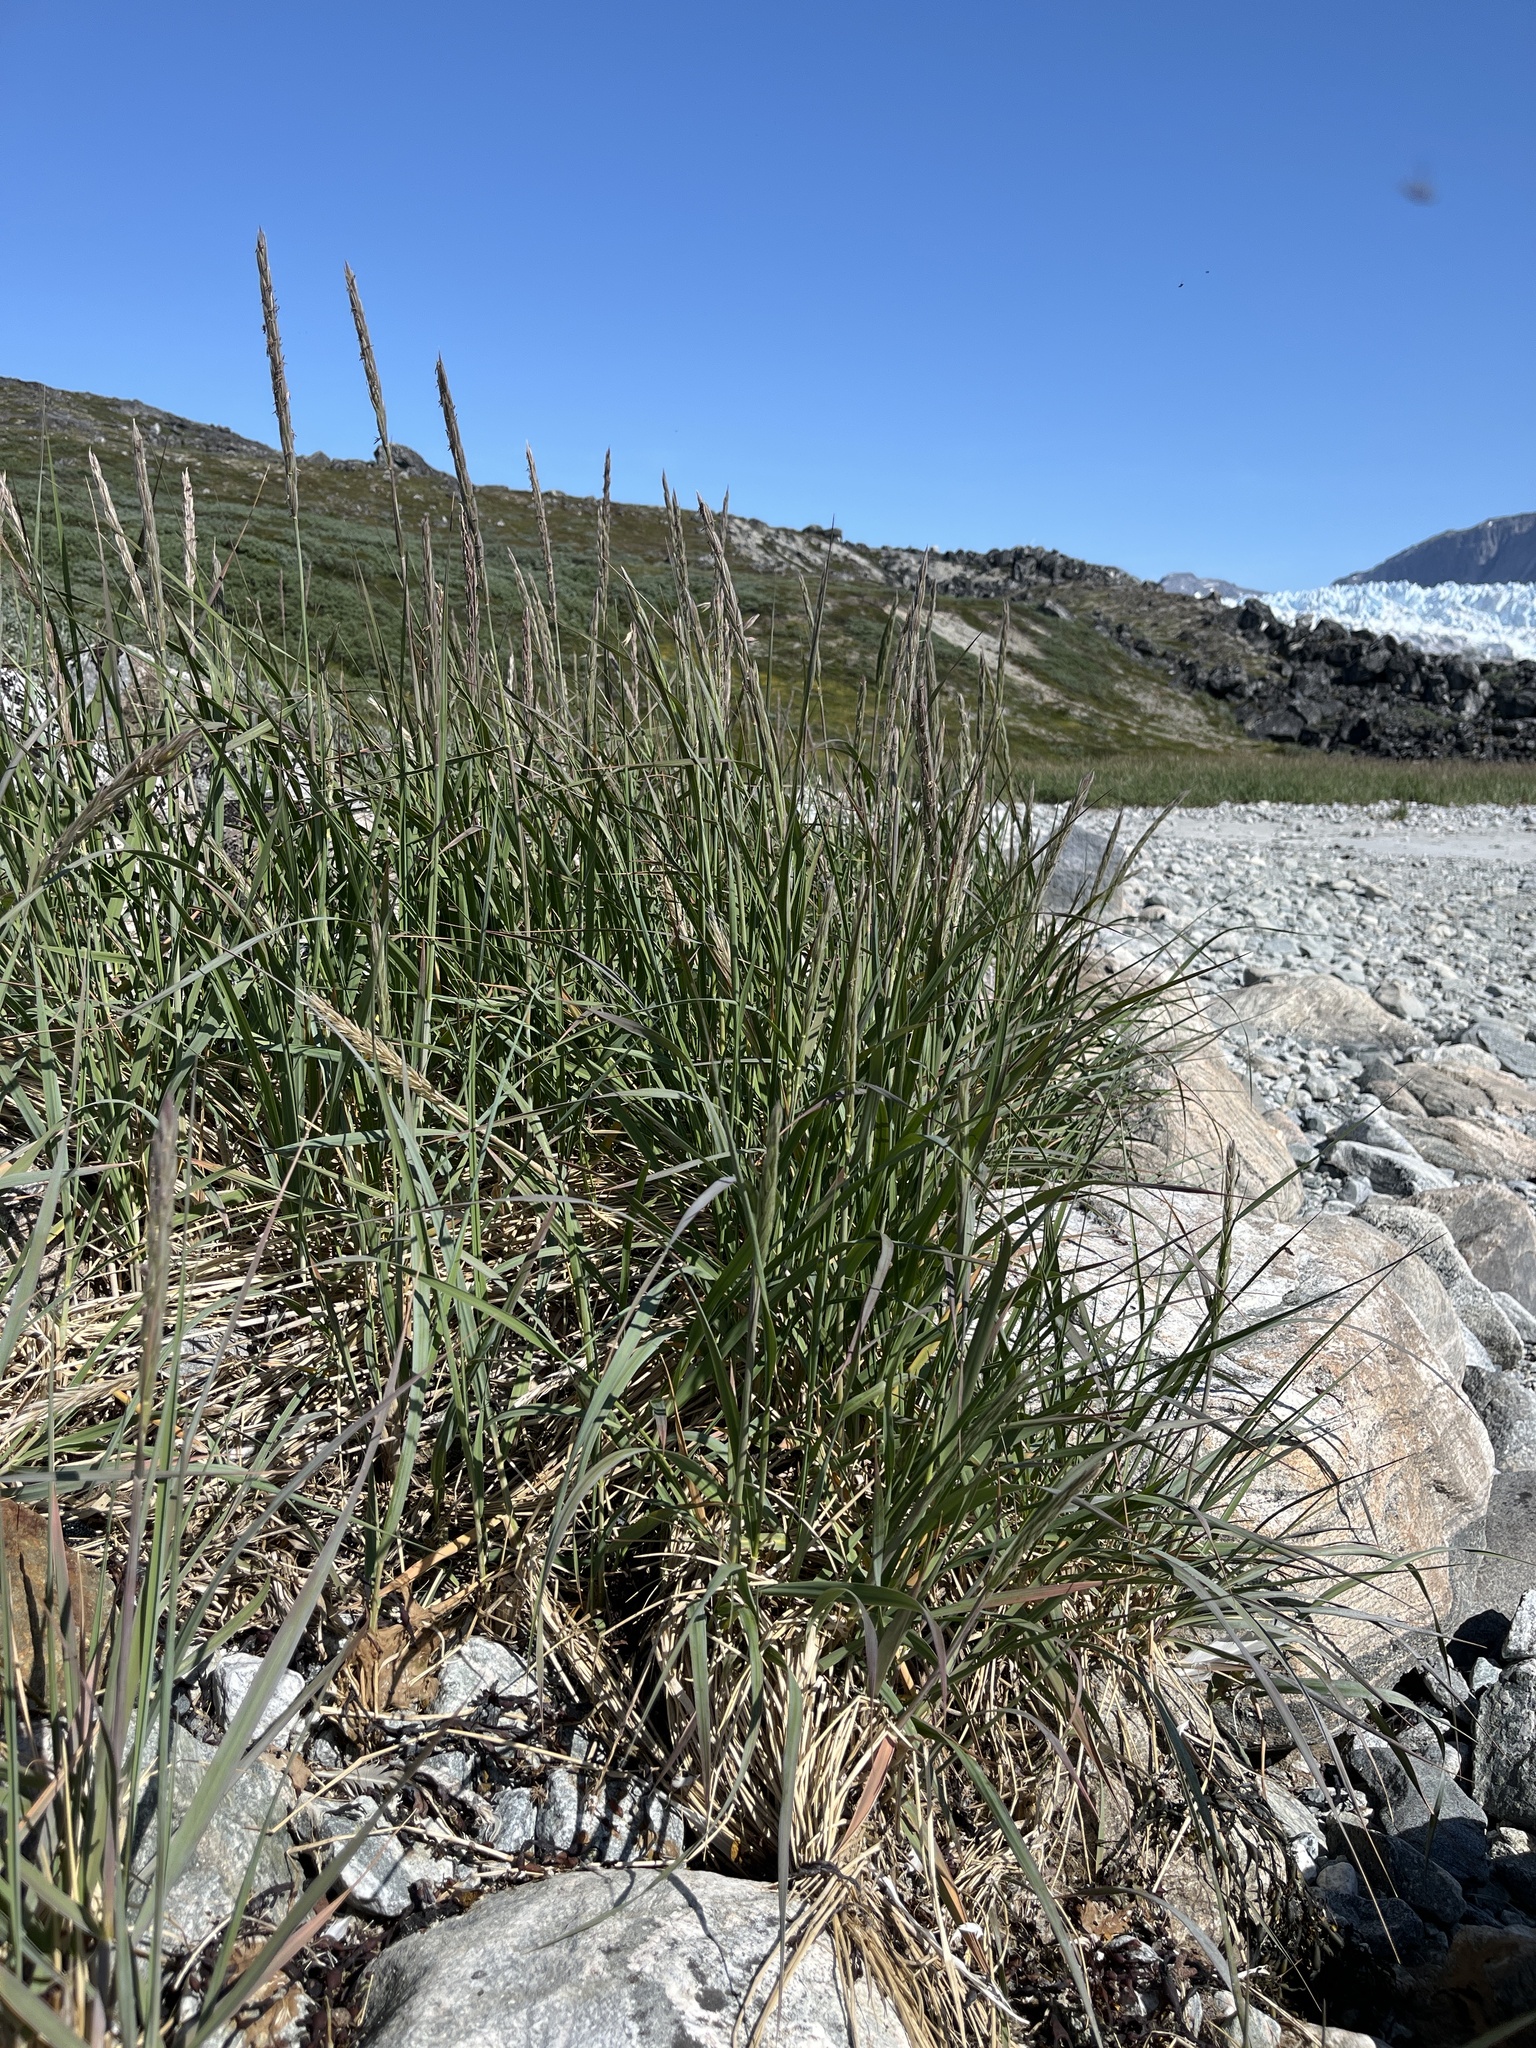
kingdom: Plantae
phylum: Tracheophyta
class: Liliopsida
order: Poales
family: Poaceae
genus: Leymus
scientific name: Leymus mollis
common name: American dune grass
